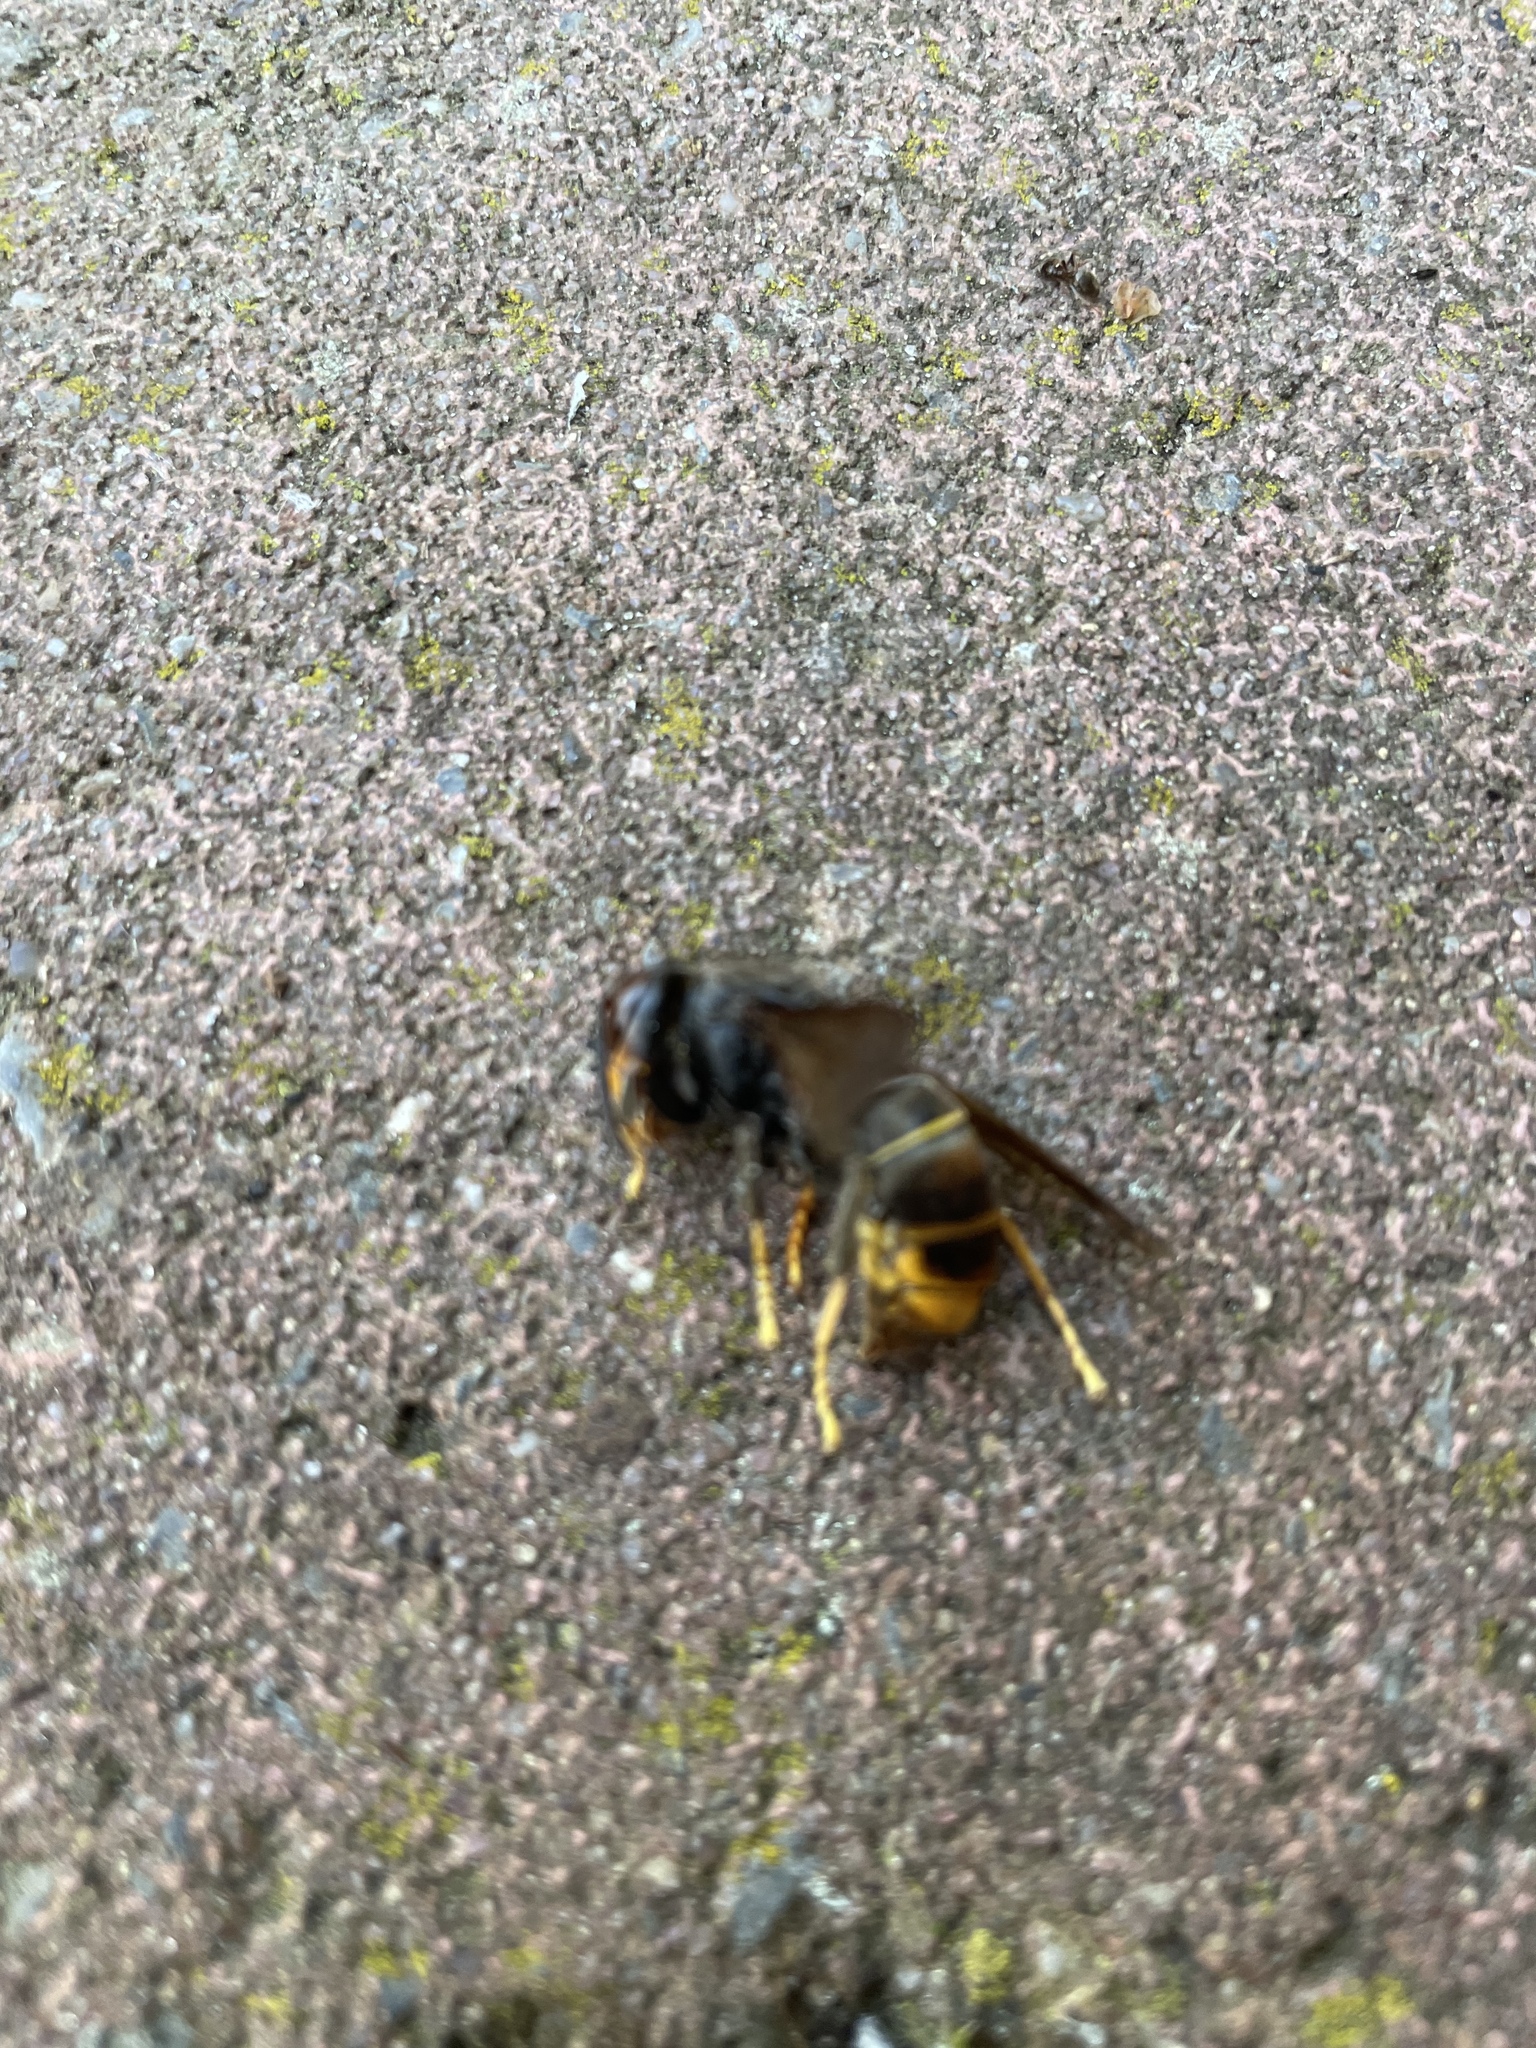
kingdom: Animalia
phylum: Arthropoda
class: Insecta
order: Hymenoptera
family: Vespidae
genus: Vespa
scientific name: Vespa velutina
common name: Asian hornet
